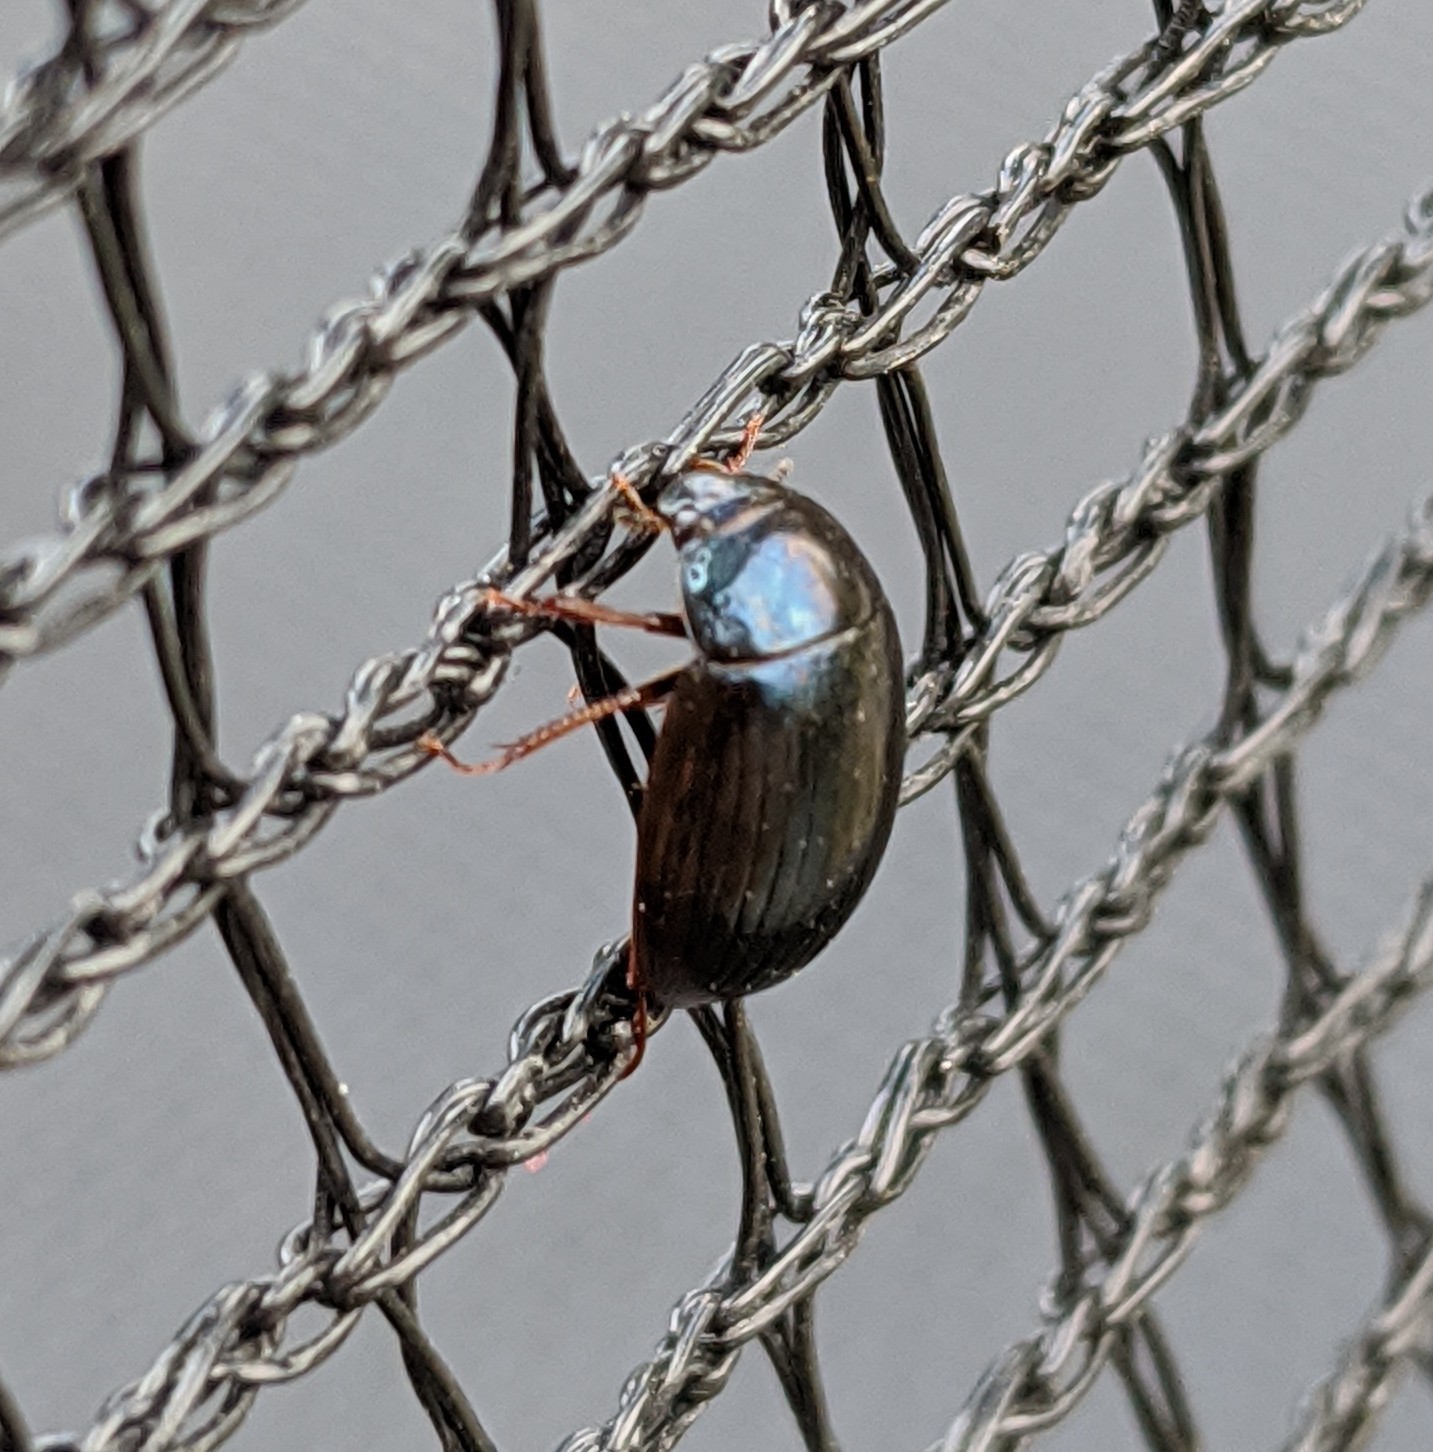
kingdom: Animalia
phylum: Arthropoda
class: Insecta
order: Coleoptera
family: Hydrophilidae
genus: Hydrobius
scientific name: Hydrobius
